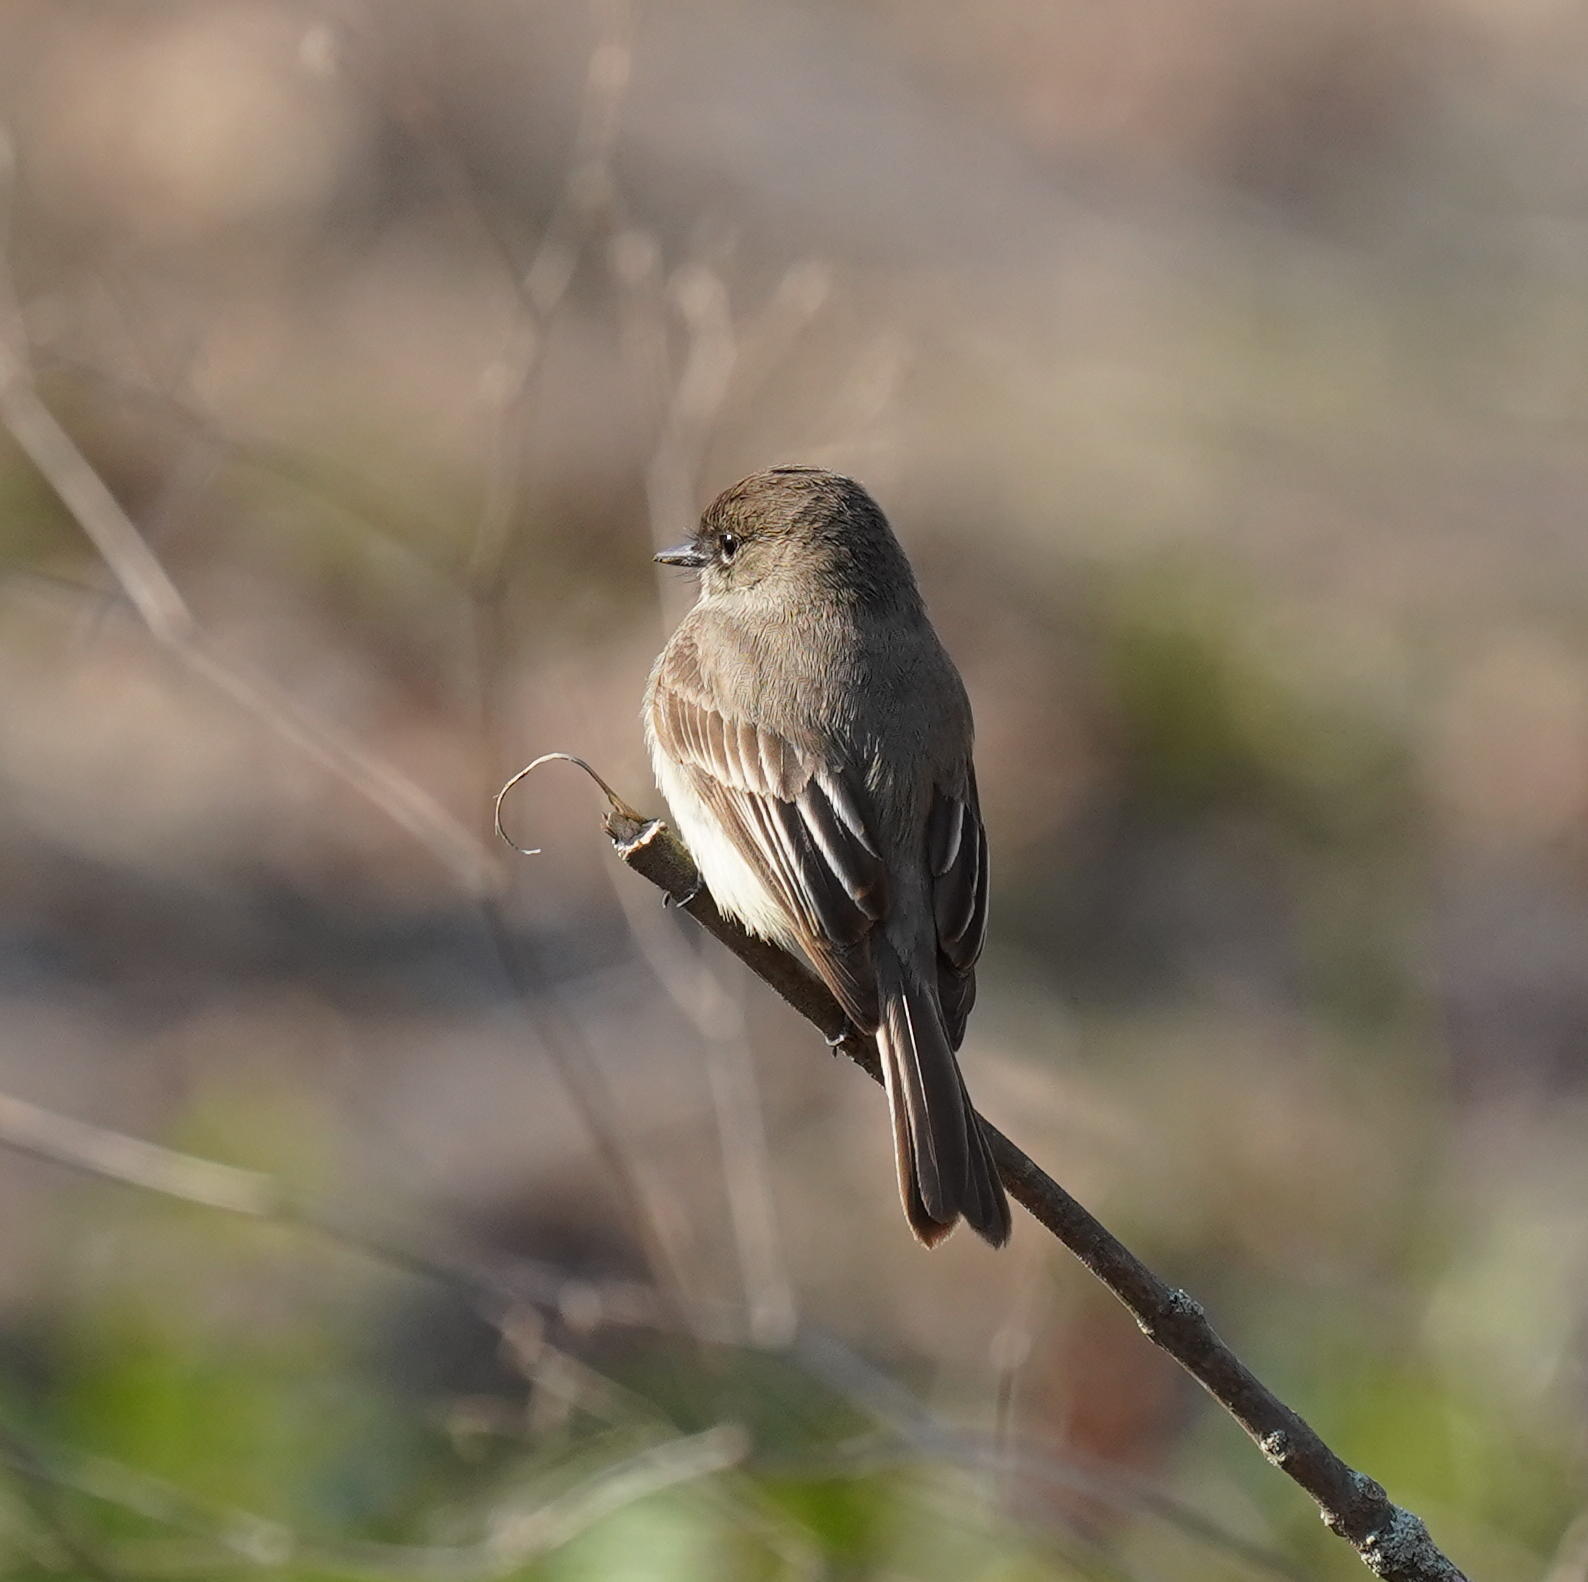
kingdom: Animalia
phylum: Chordata
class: Aves
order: Passeriformes
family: Tyrannidae
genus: Sayornis
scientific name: Sayornis phoebe
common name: Eastern phoebe
